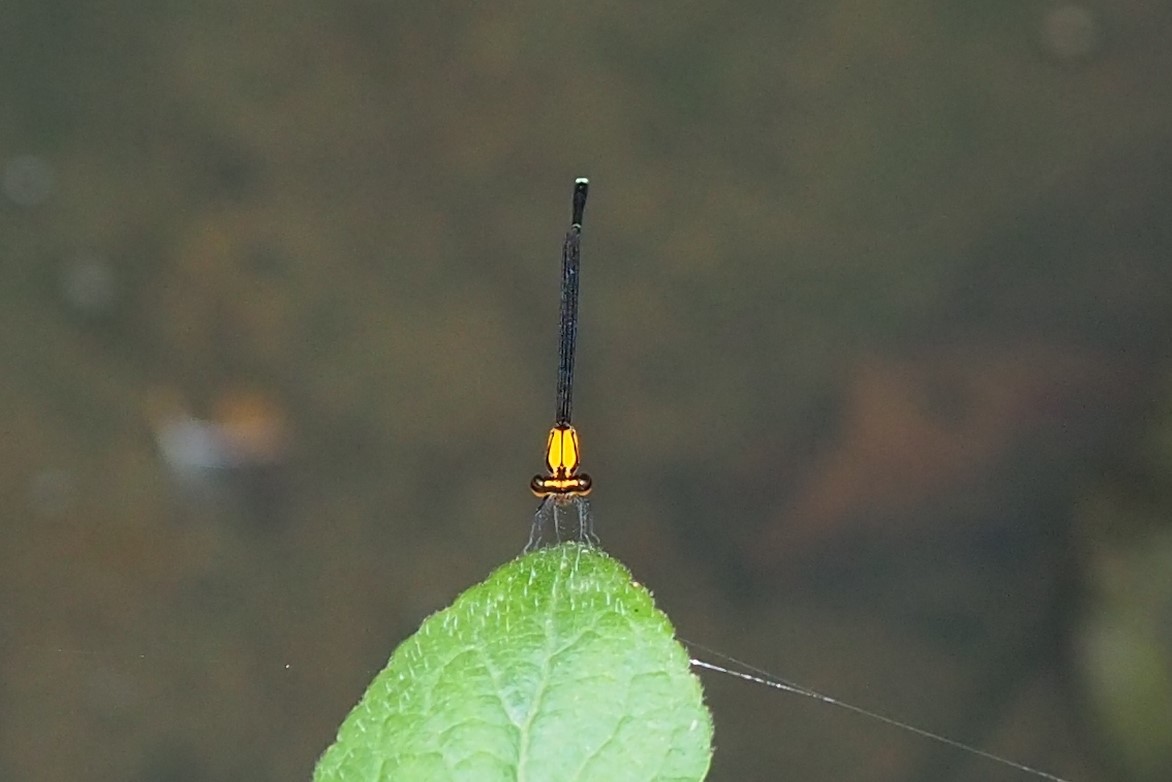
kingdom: Animalia
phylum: Arthropoda
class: Insecta
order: Odonata
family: Platycnemididae
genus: Prodasineura
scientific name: Prodasineura croconota
